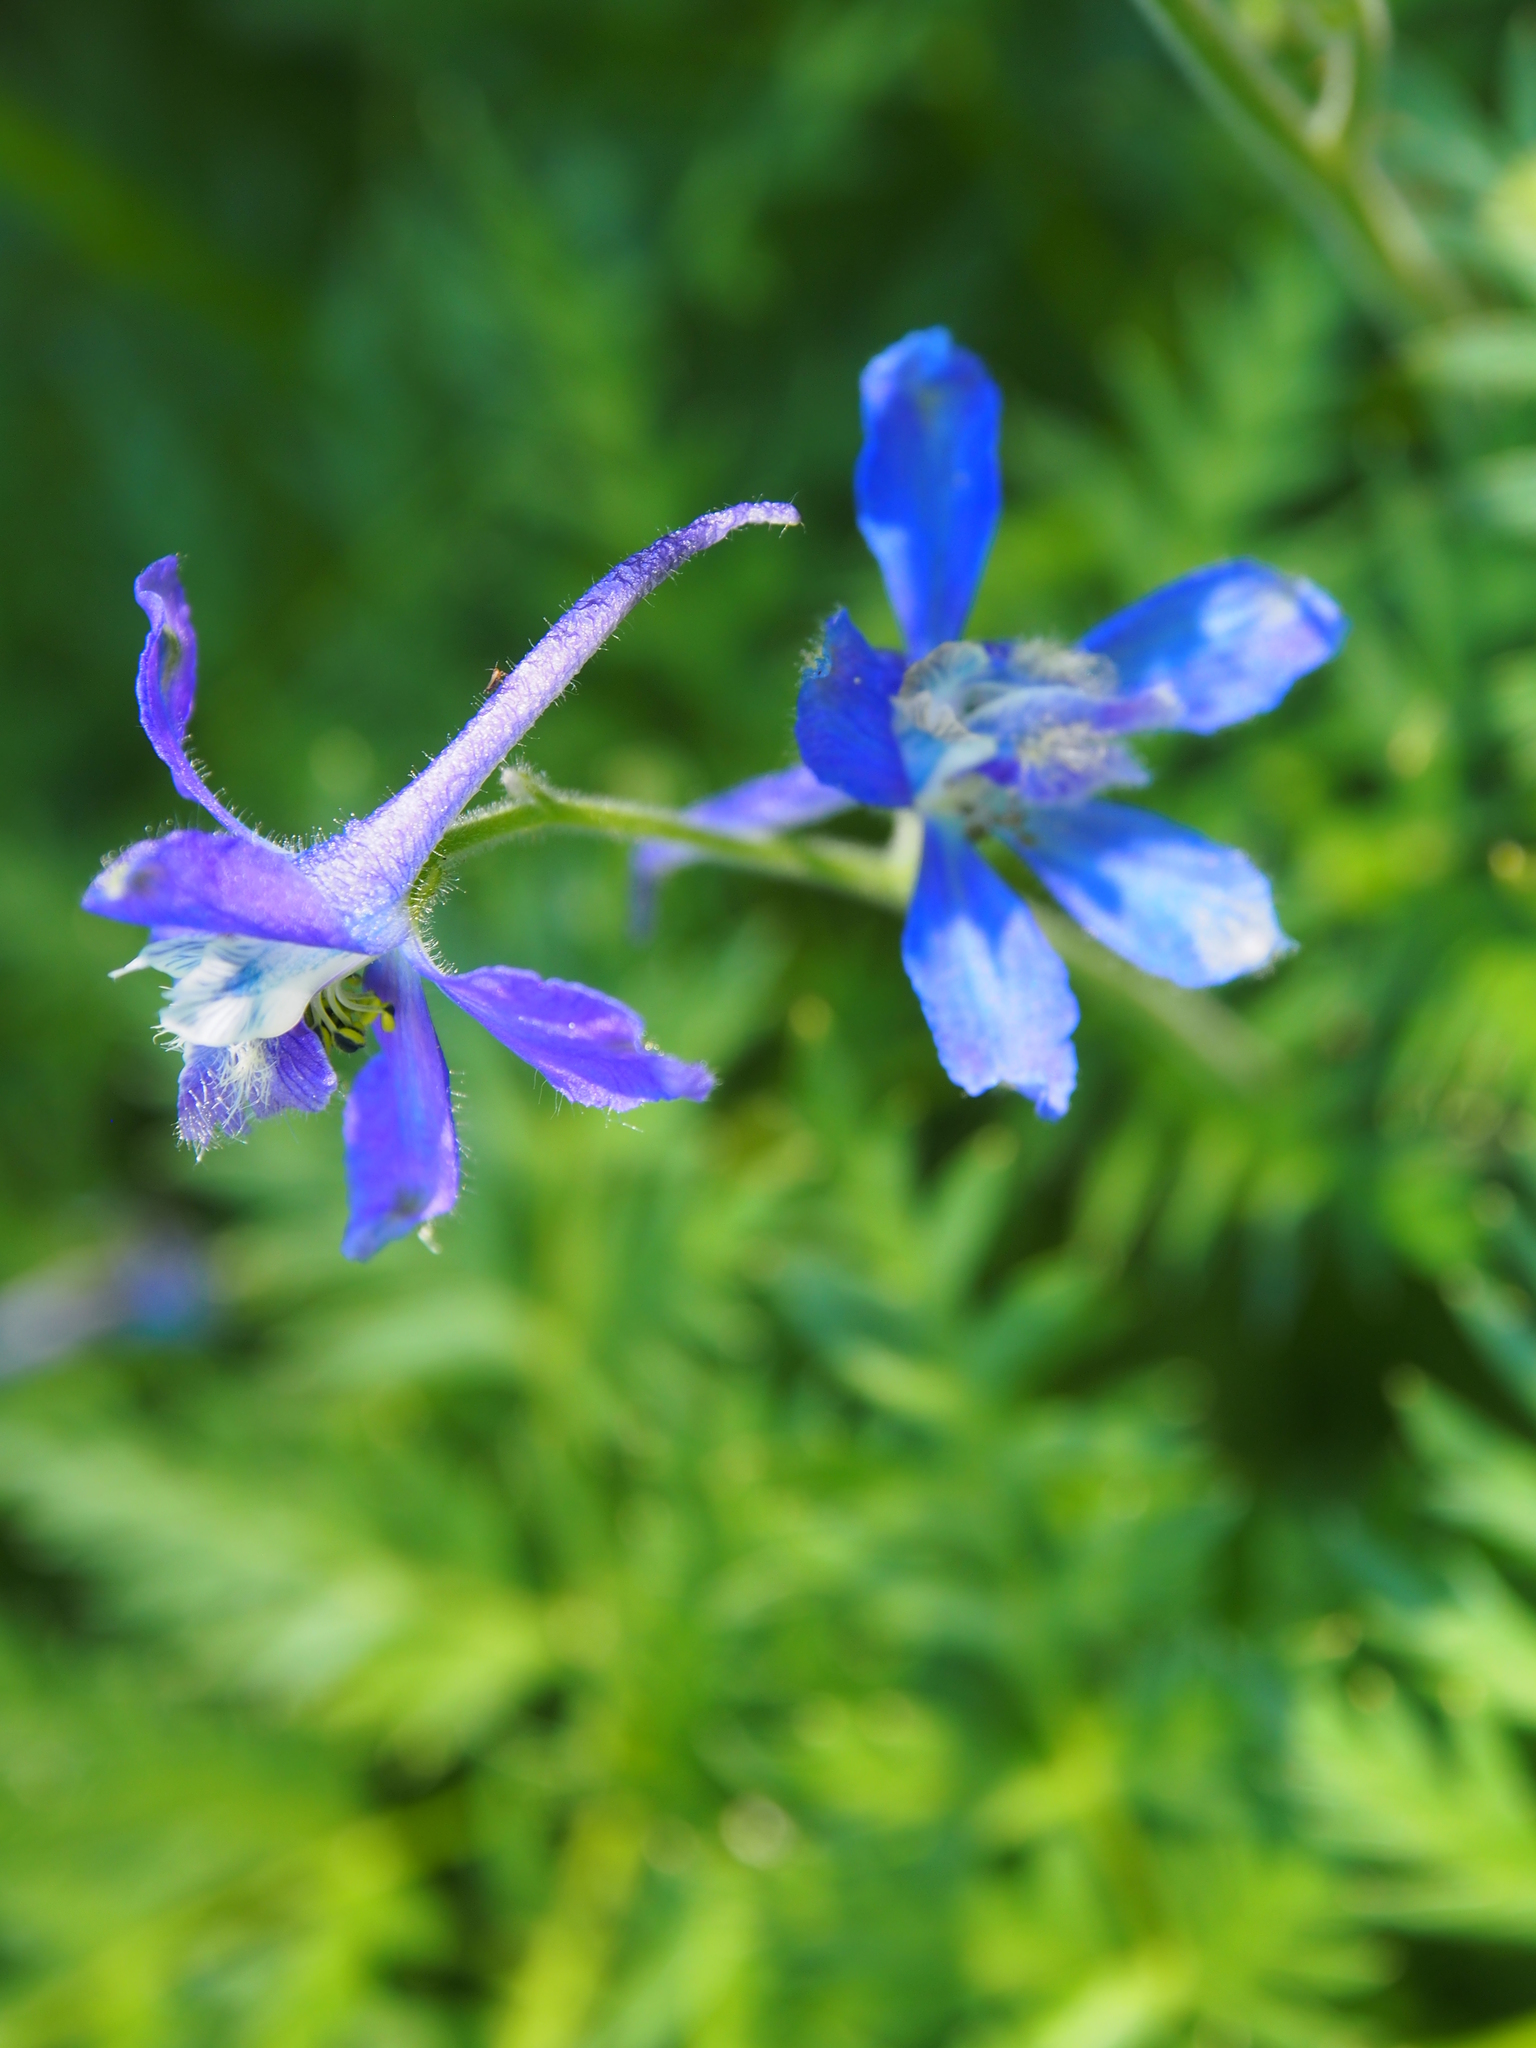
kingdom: Plantae
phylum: Tracheophyta
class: Magnoliopsida
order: Ranunculales
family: Ranunculaceae
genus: Delphinium
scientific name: Delphinium nuttallianum
